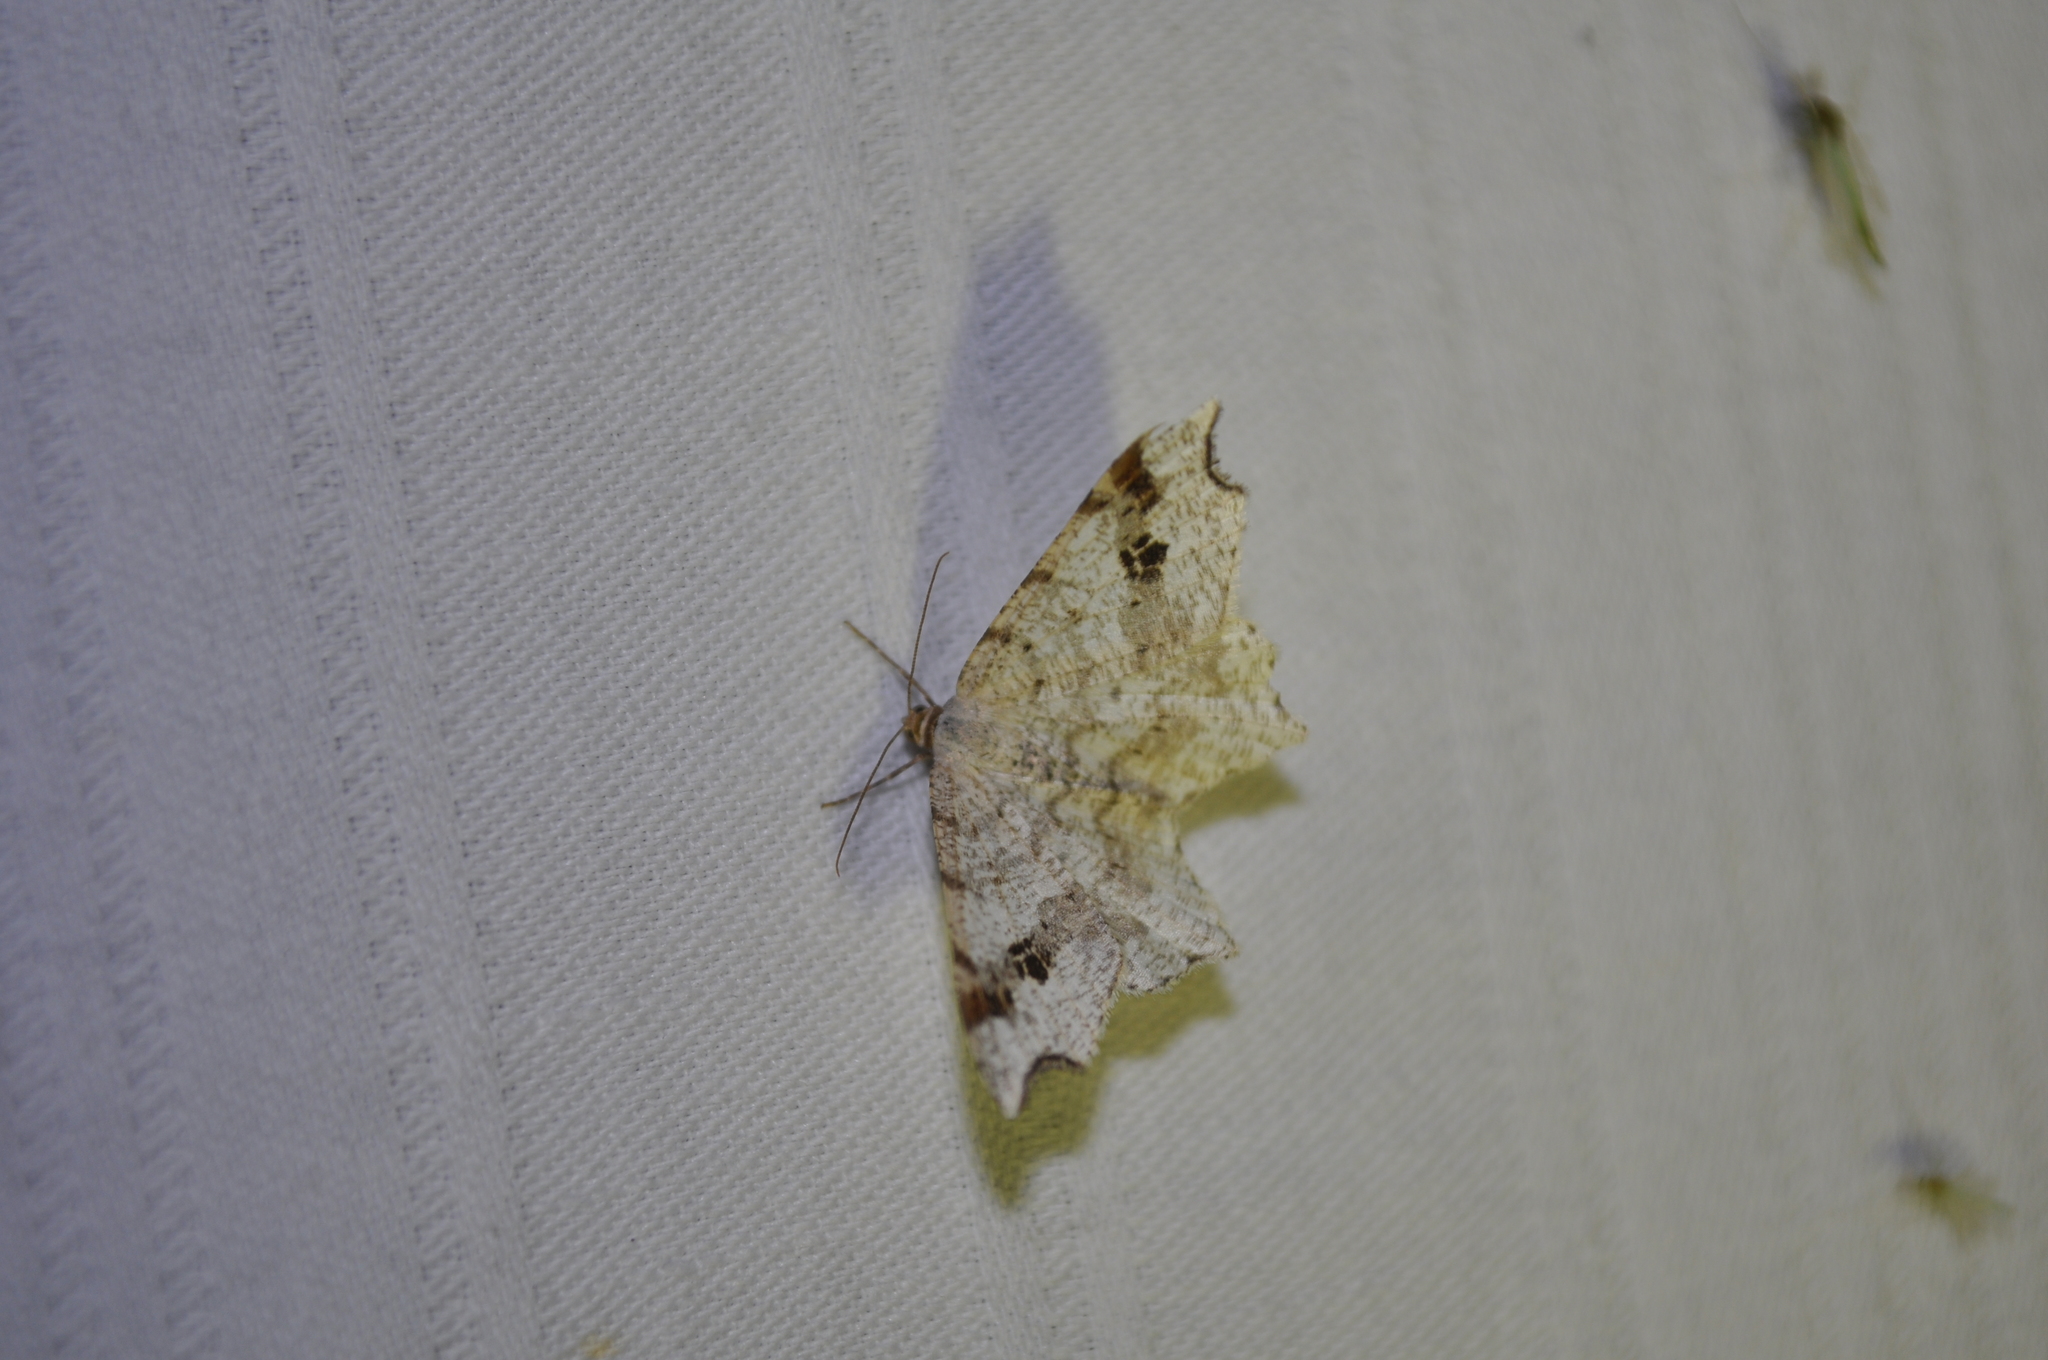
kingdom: Animalia
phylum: Arthropoda
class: Insecta
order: Lepidoptera
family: Geometridae
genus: Macaria
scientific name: Macaria notata
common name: Peacock moth
